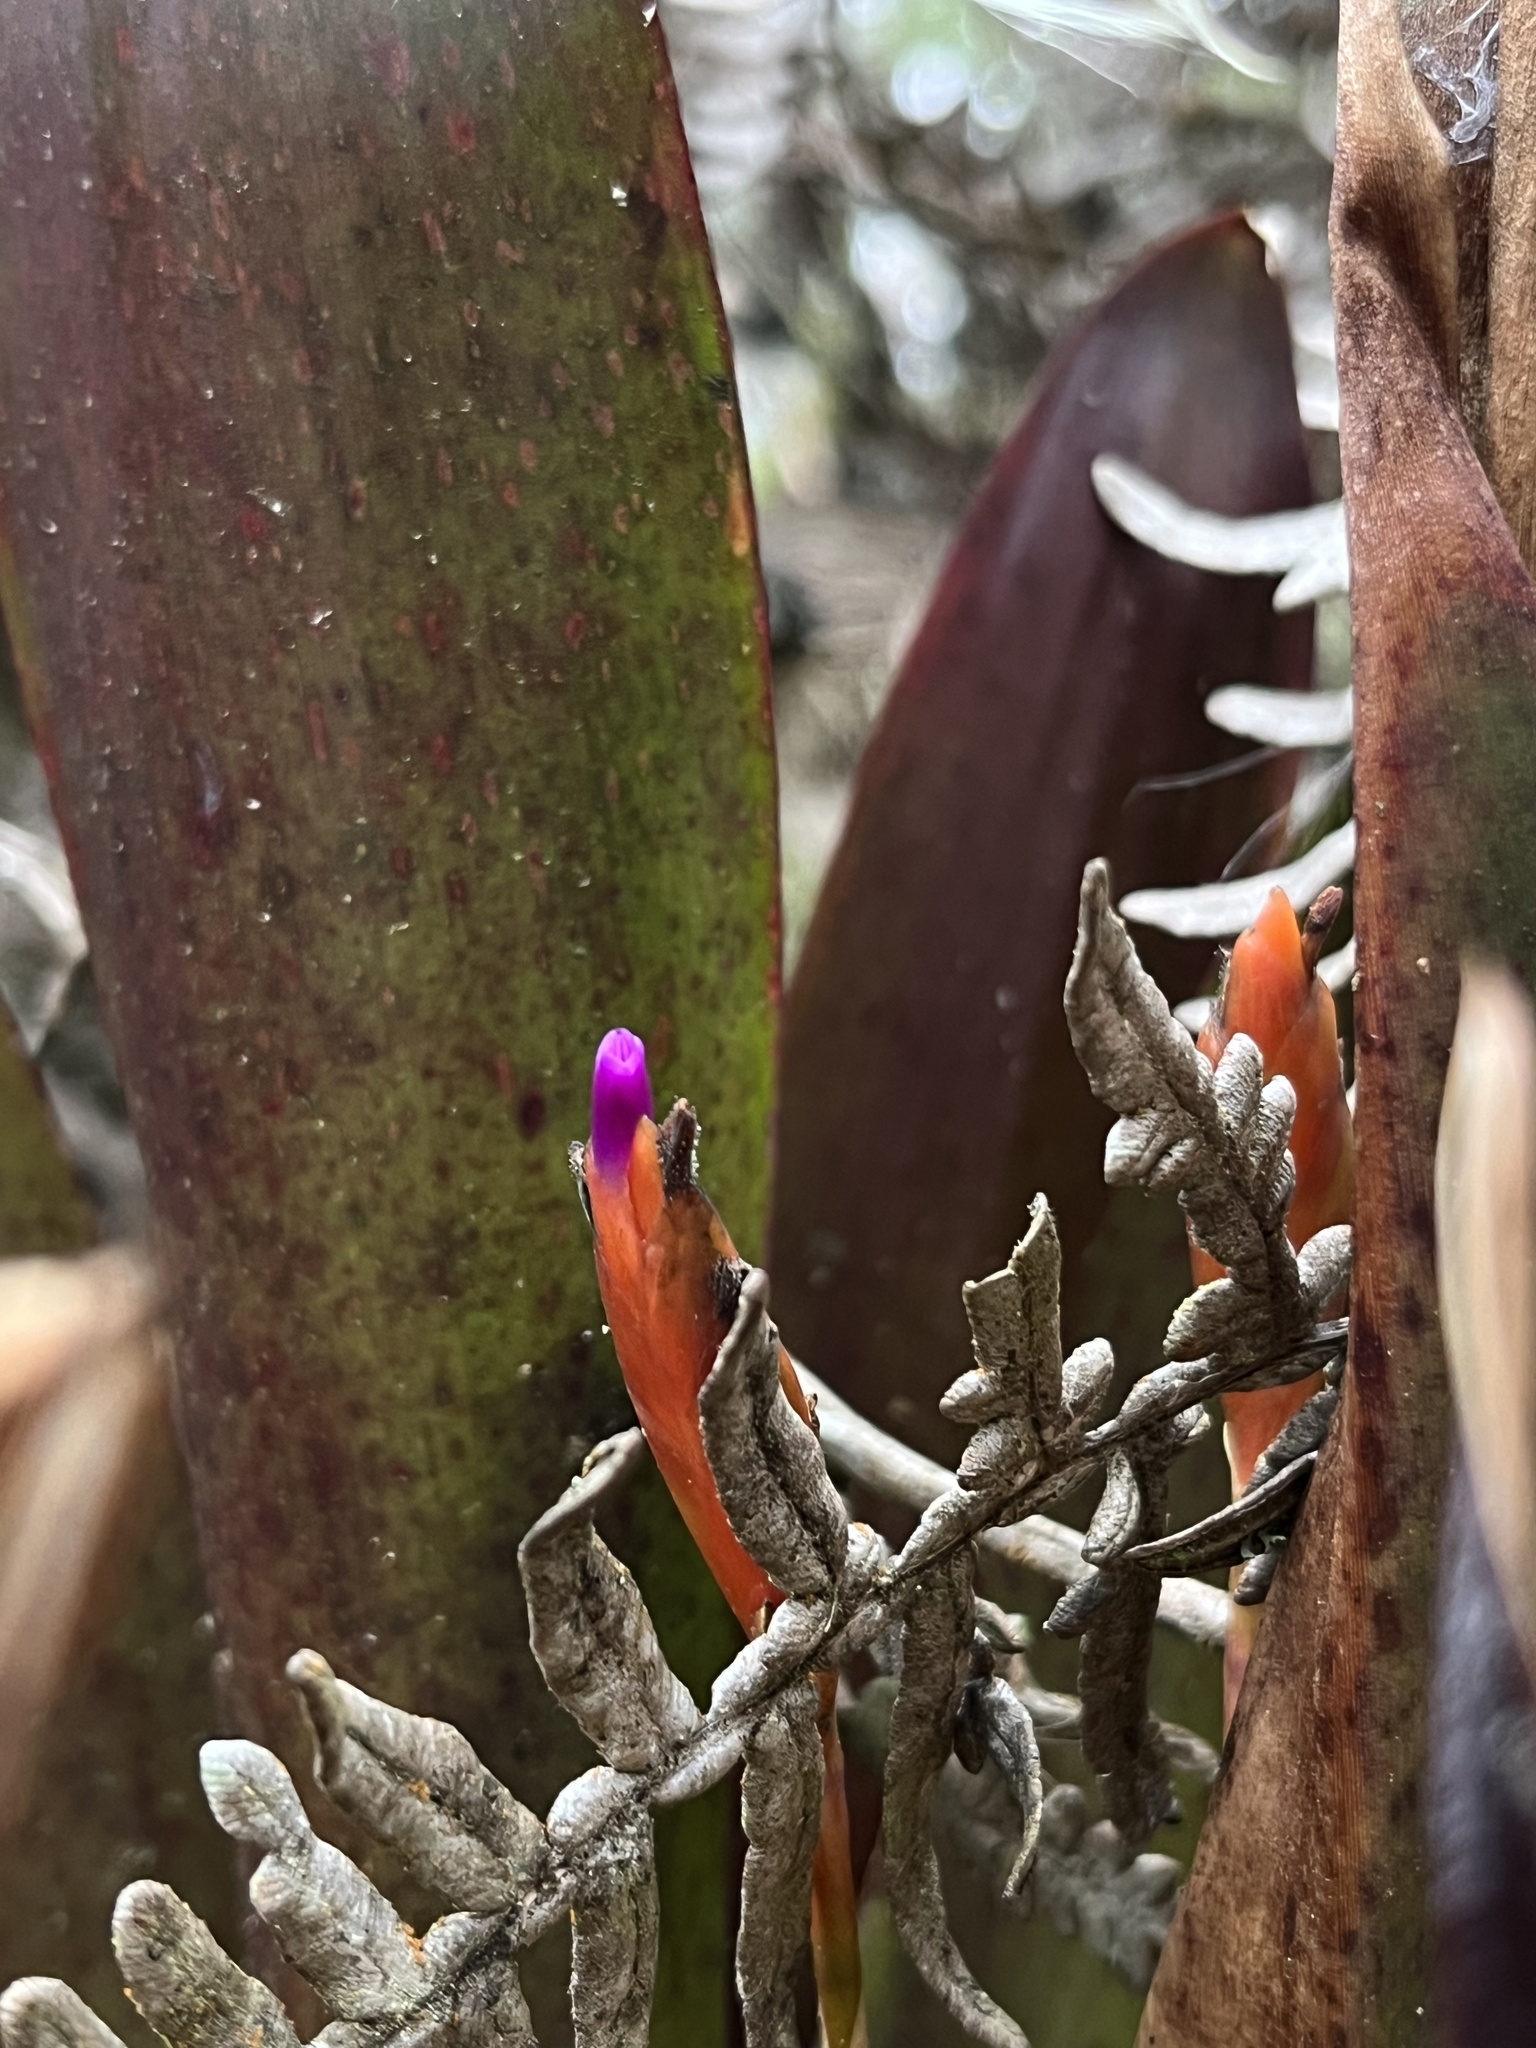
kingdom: Plantae
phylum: Tracheophyta
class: Liliopsida
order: Poales
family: Bromeliaceae
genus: Tillandsia
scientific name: Tillandsia complanata
